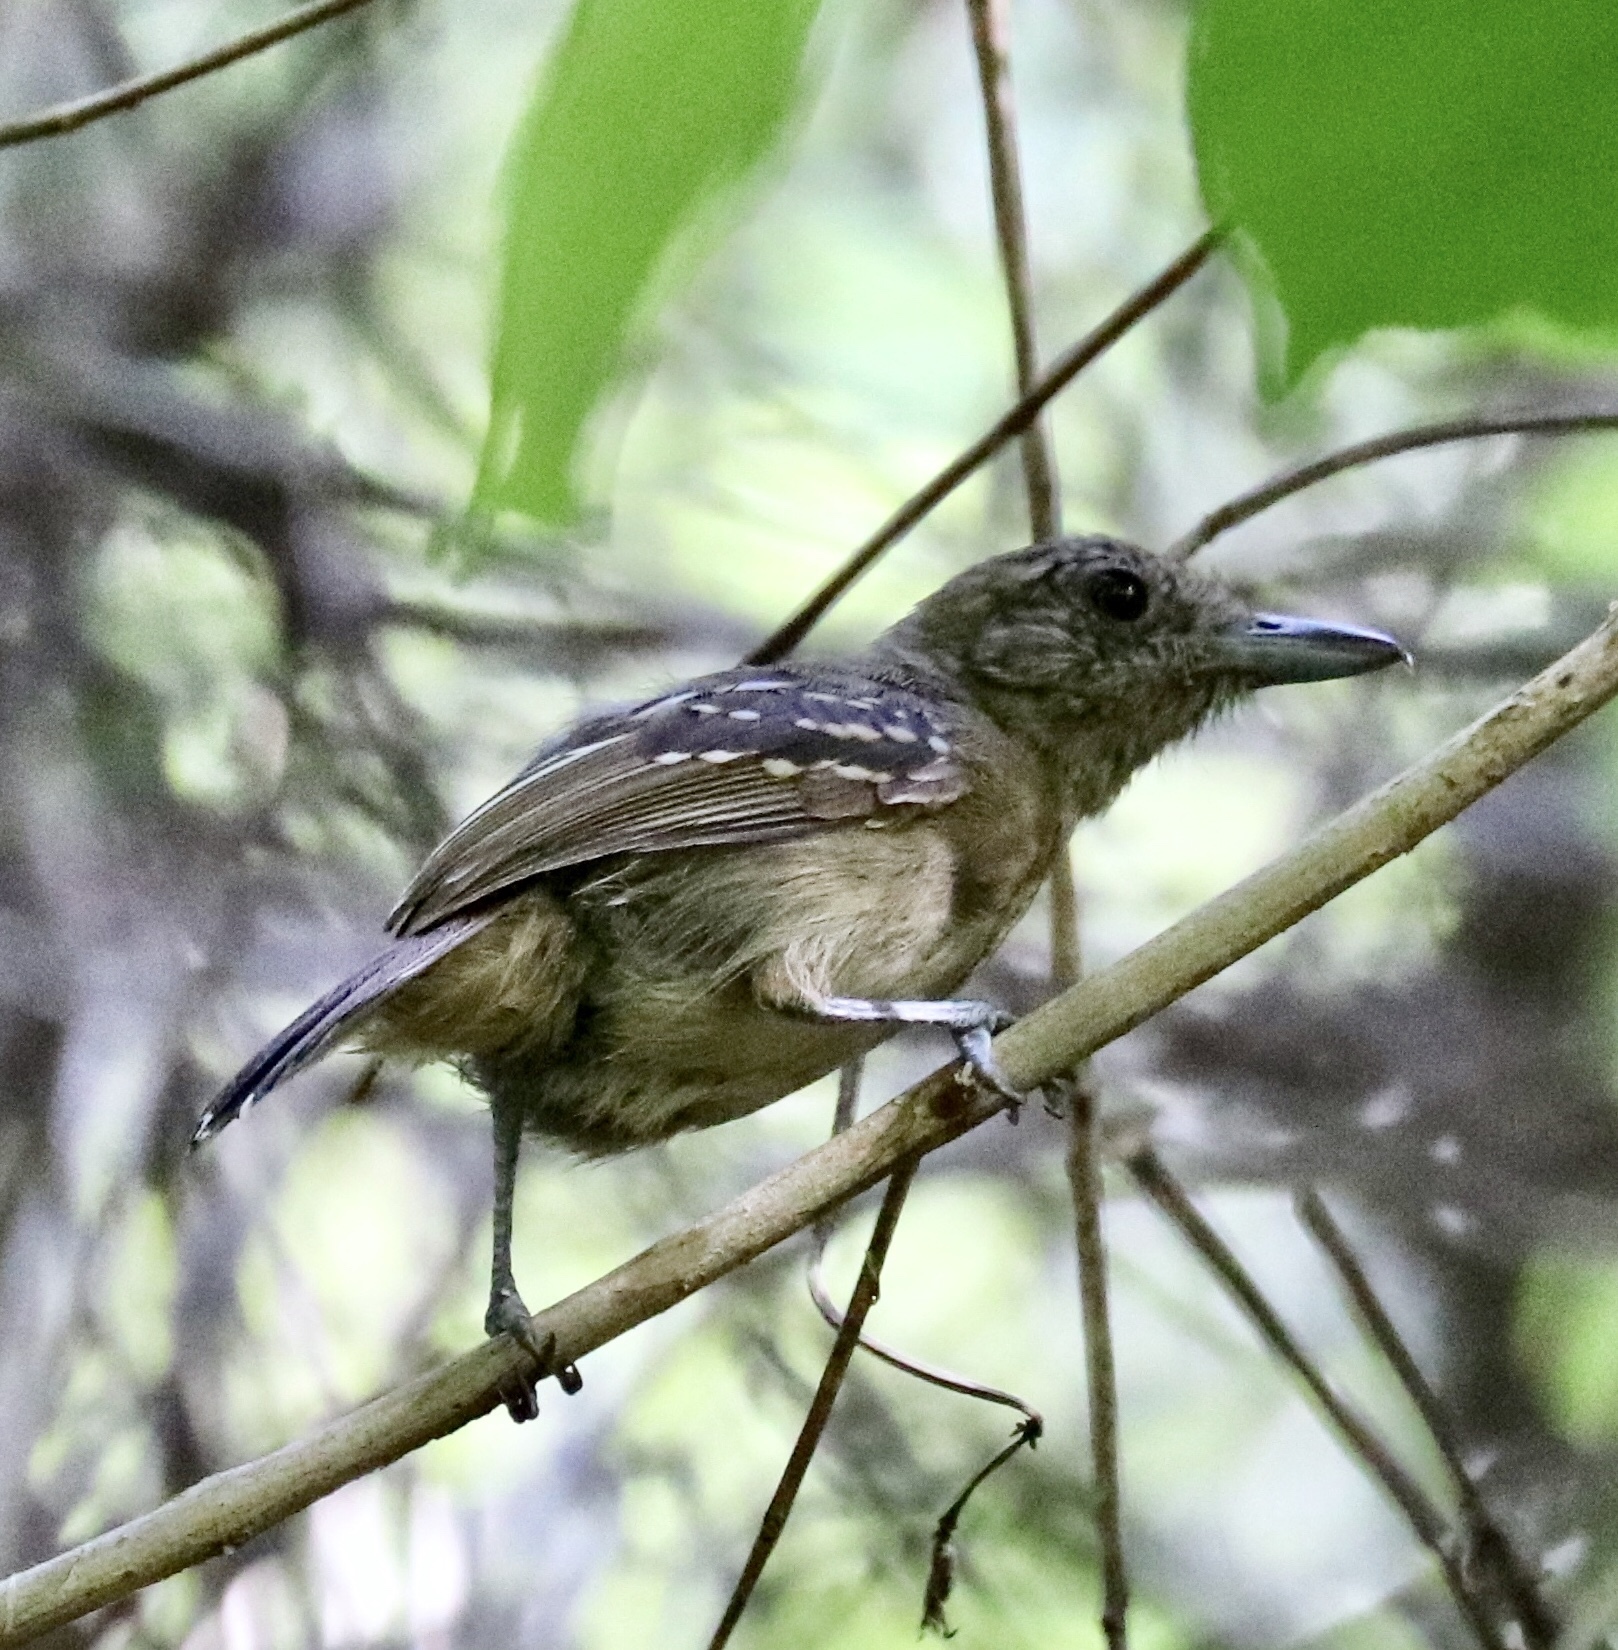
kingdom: Animalia
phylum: Chordata
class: Aves
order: Passeriformes
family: Thamnophilidae
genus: Thamnophilus
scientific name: Thamnophilus atrinucha
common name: Black-crowned antshrike
